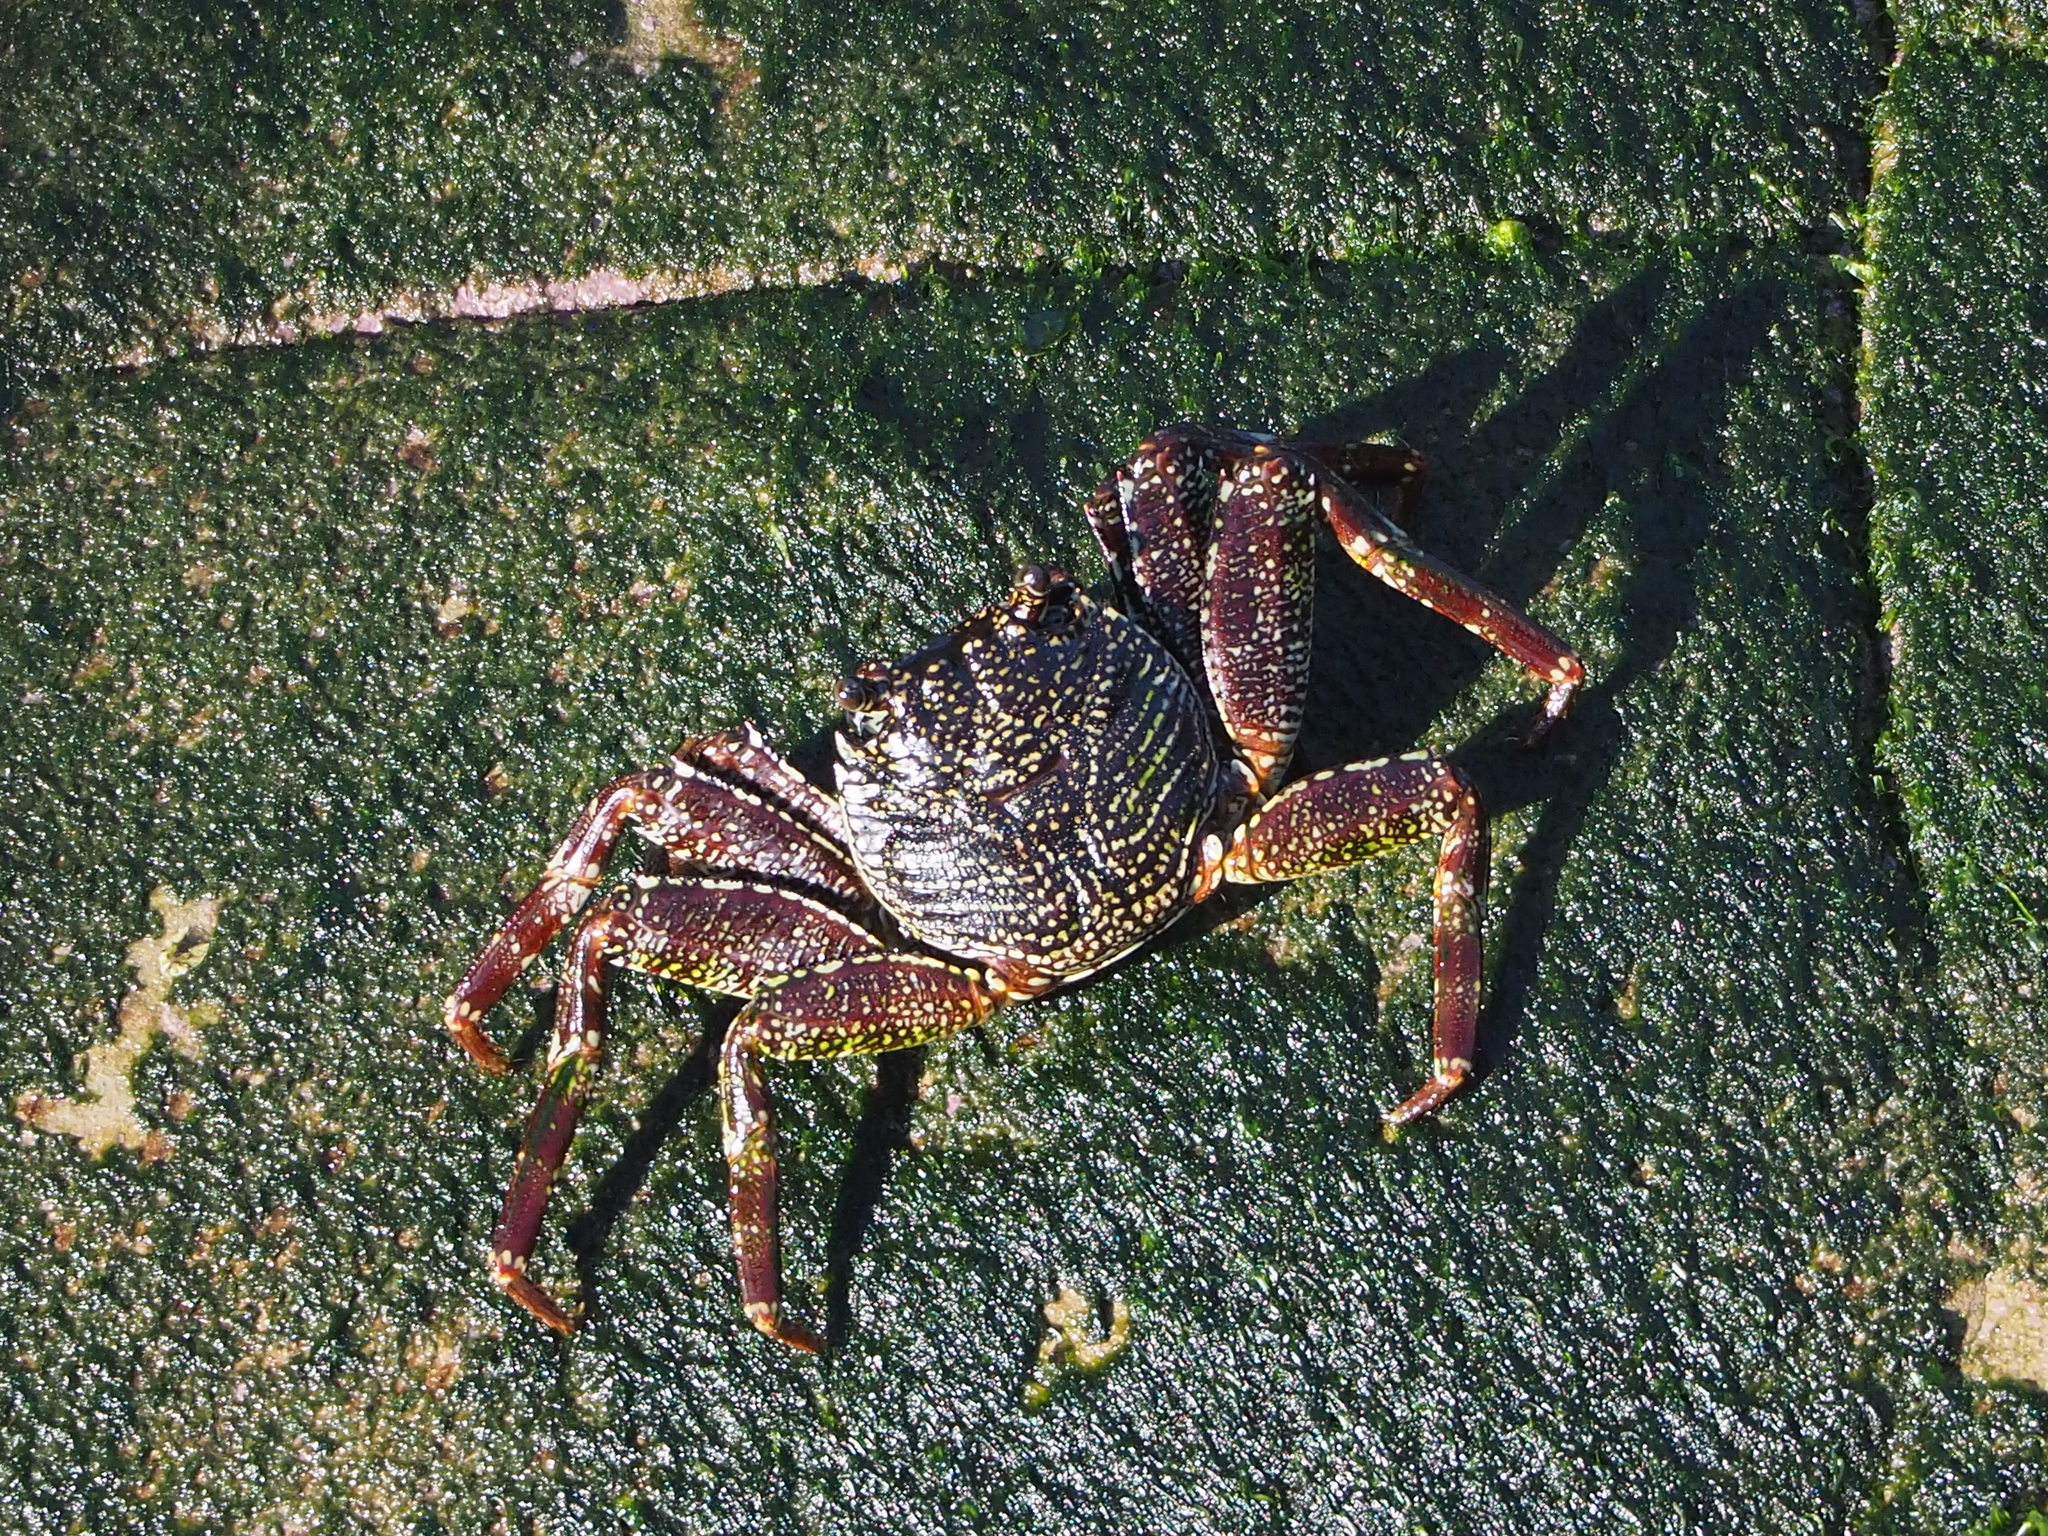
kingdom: Animalia
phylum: Arthropoda
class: Malacostraca
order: Decapoda
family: Grapsidae
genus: Grapsus
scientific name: Grapsus tenuicrustatus
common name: Natal lightfoot crab
